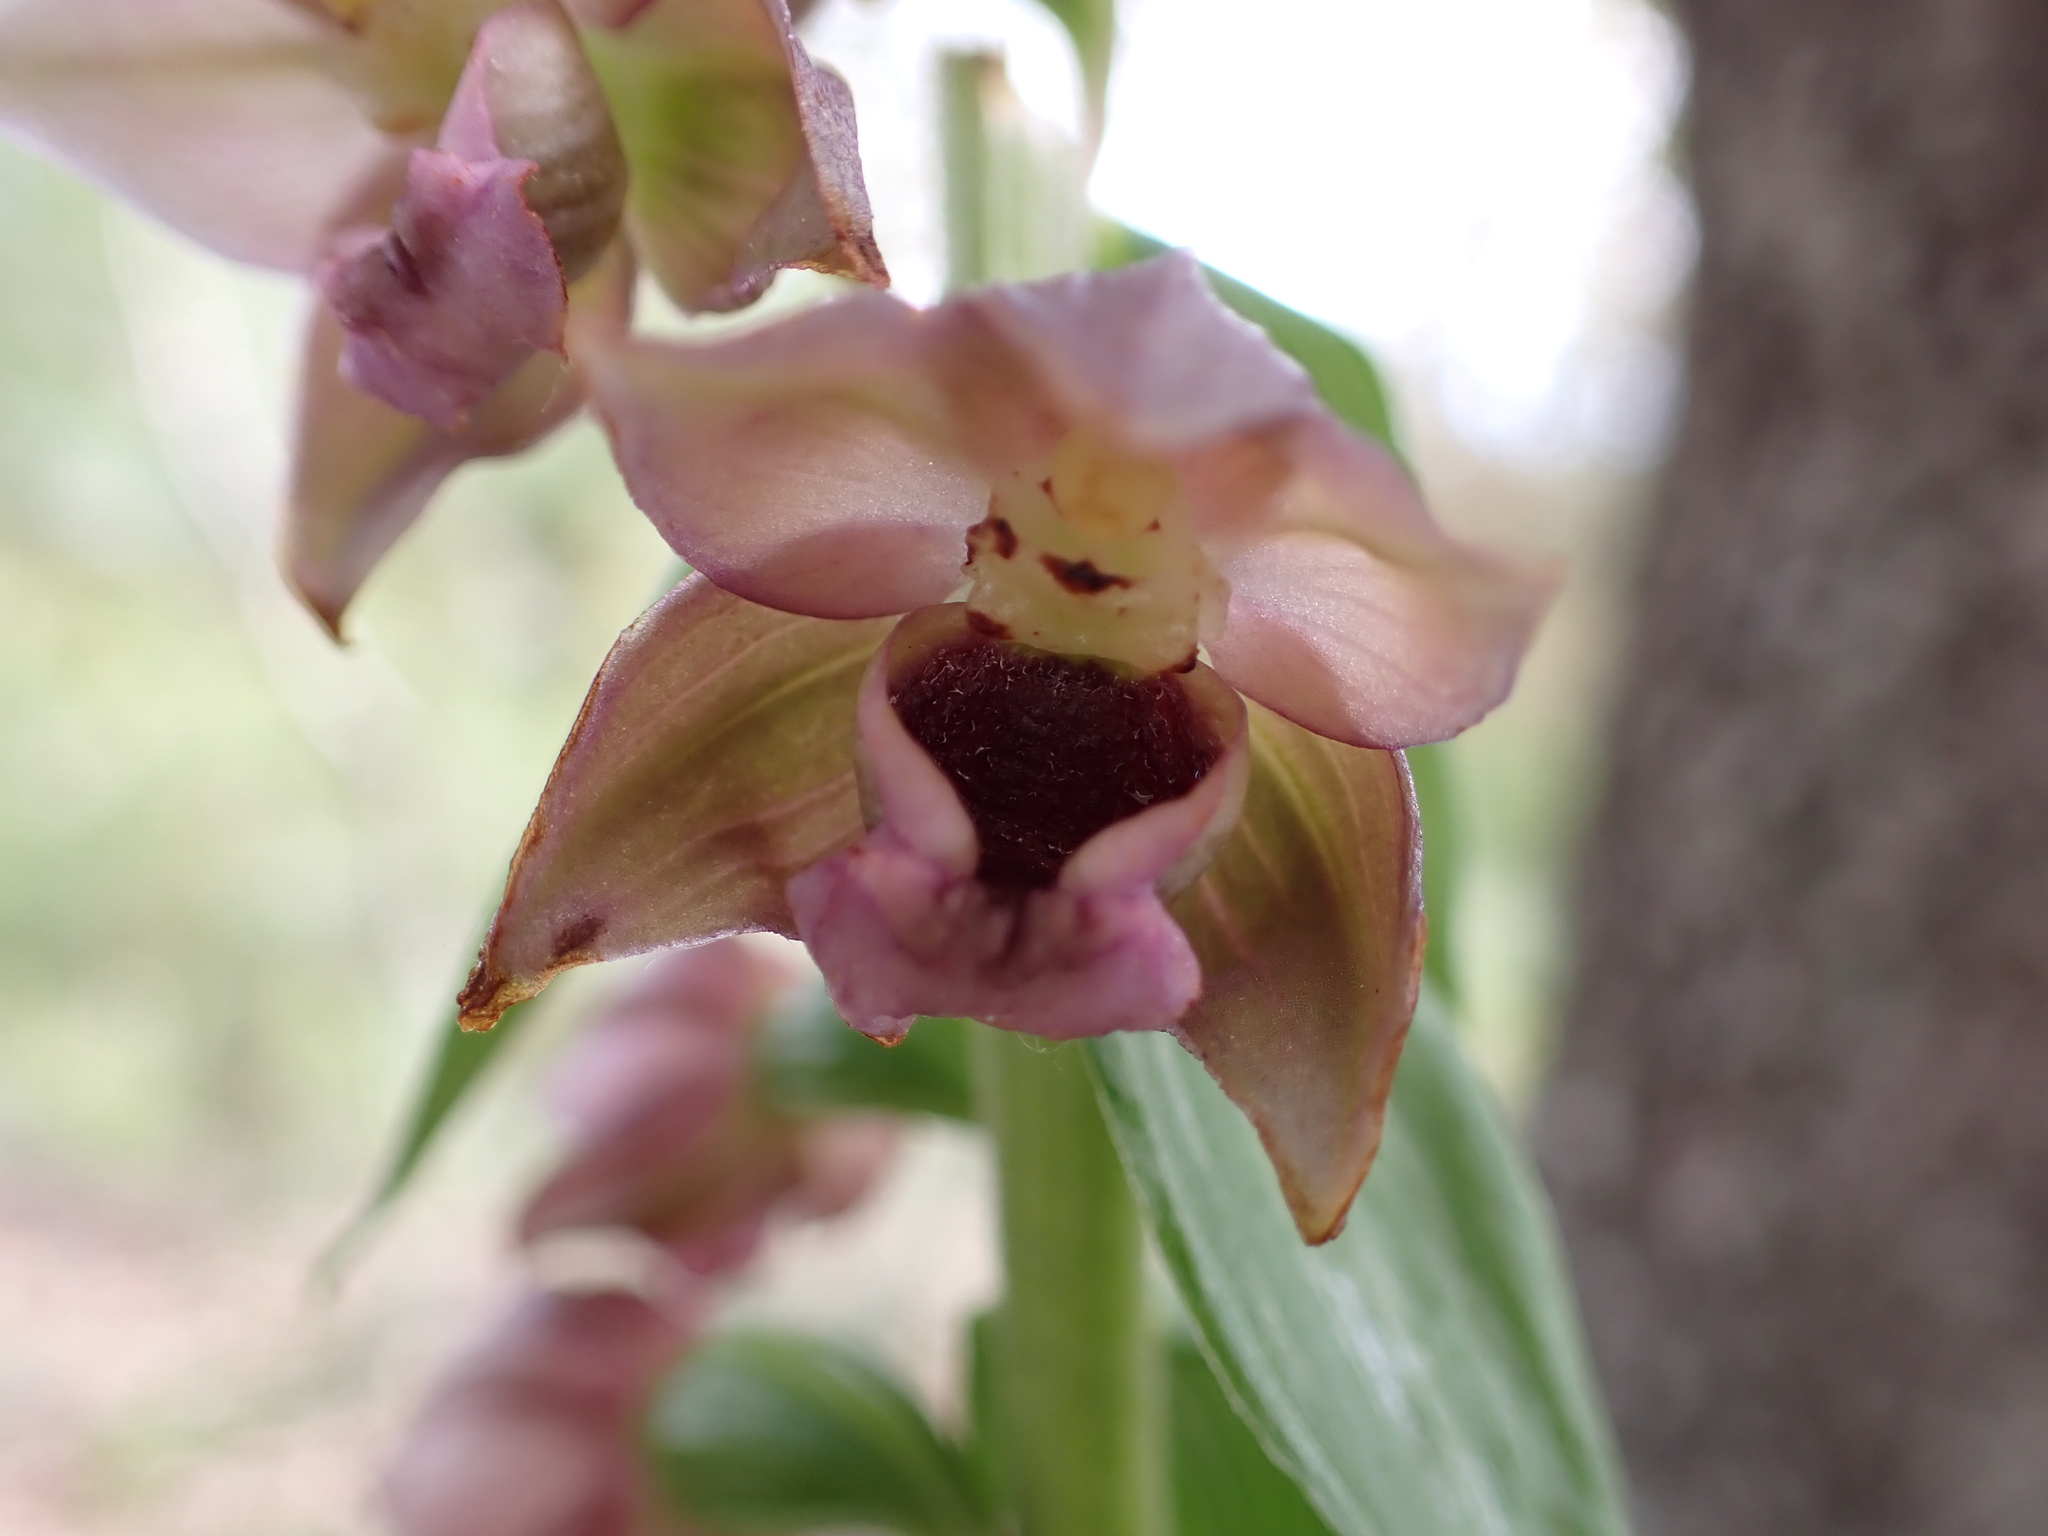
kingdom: Plantae
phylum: Tracheophyta
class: Liliopsida
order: Asparagales
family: Orchidaceae
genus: Epipactis
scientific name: Epipactis helleborine
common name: Broad-leaved helleborine
